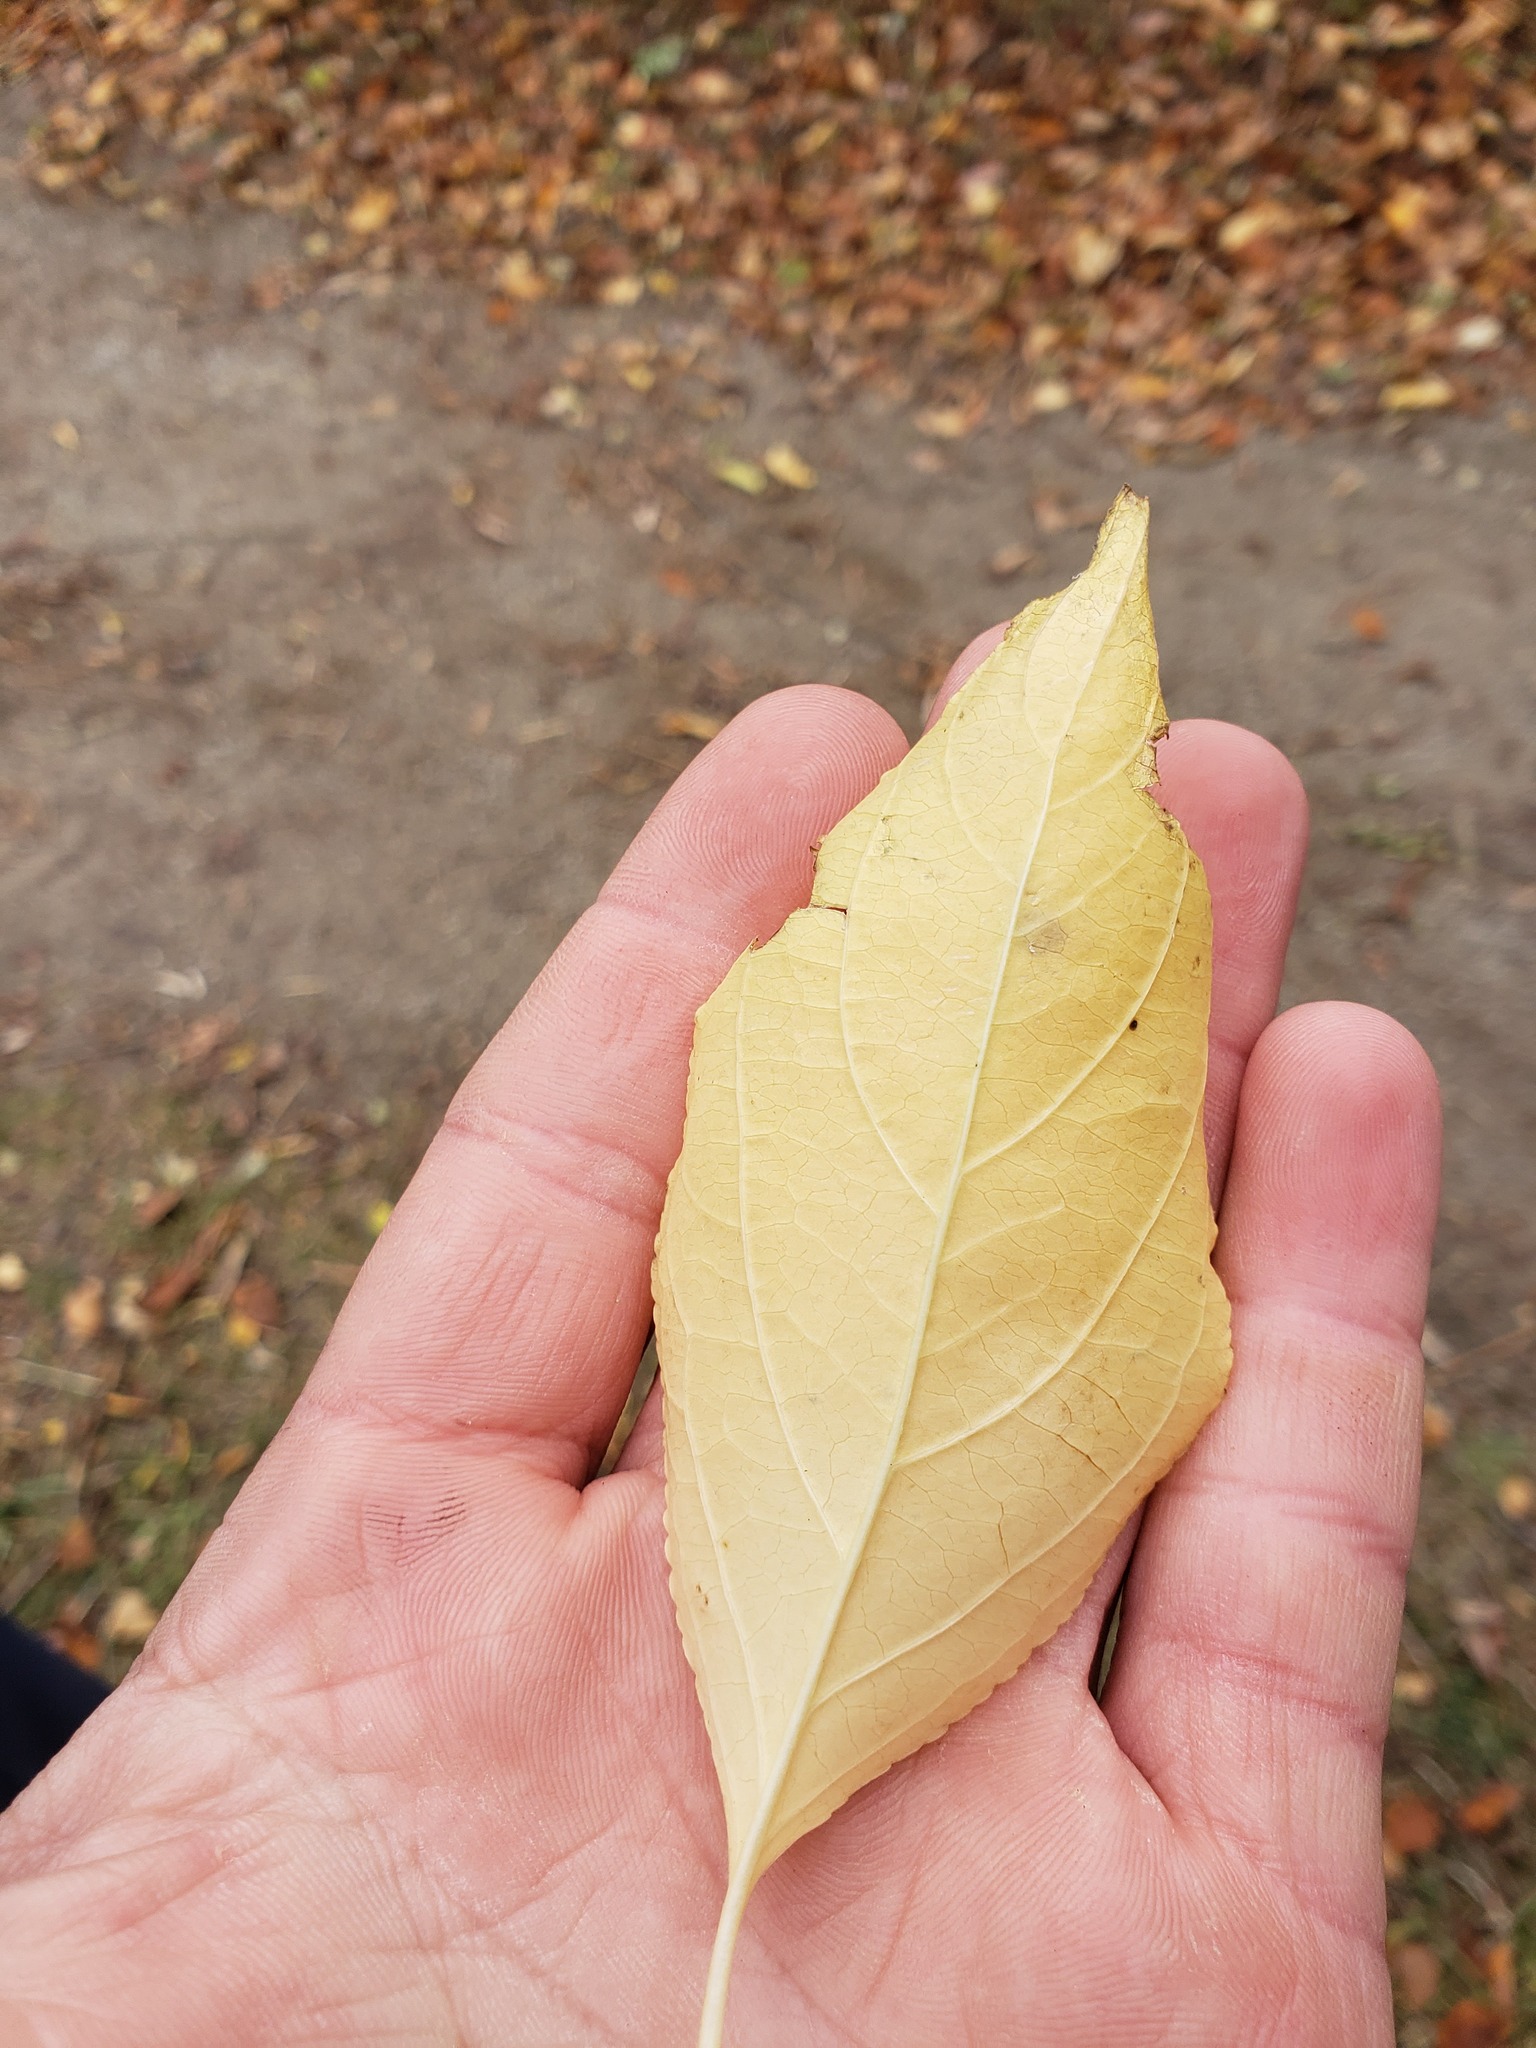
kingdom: Plantae
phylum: Tracheophyta
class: Magnoliopsida
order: Celastrales
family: Celastraceae
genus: Celastrus
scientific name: Celastrus scandens
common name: American bittersweet
